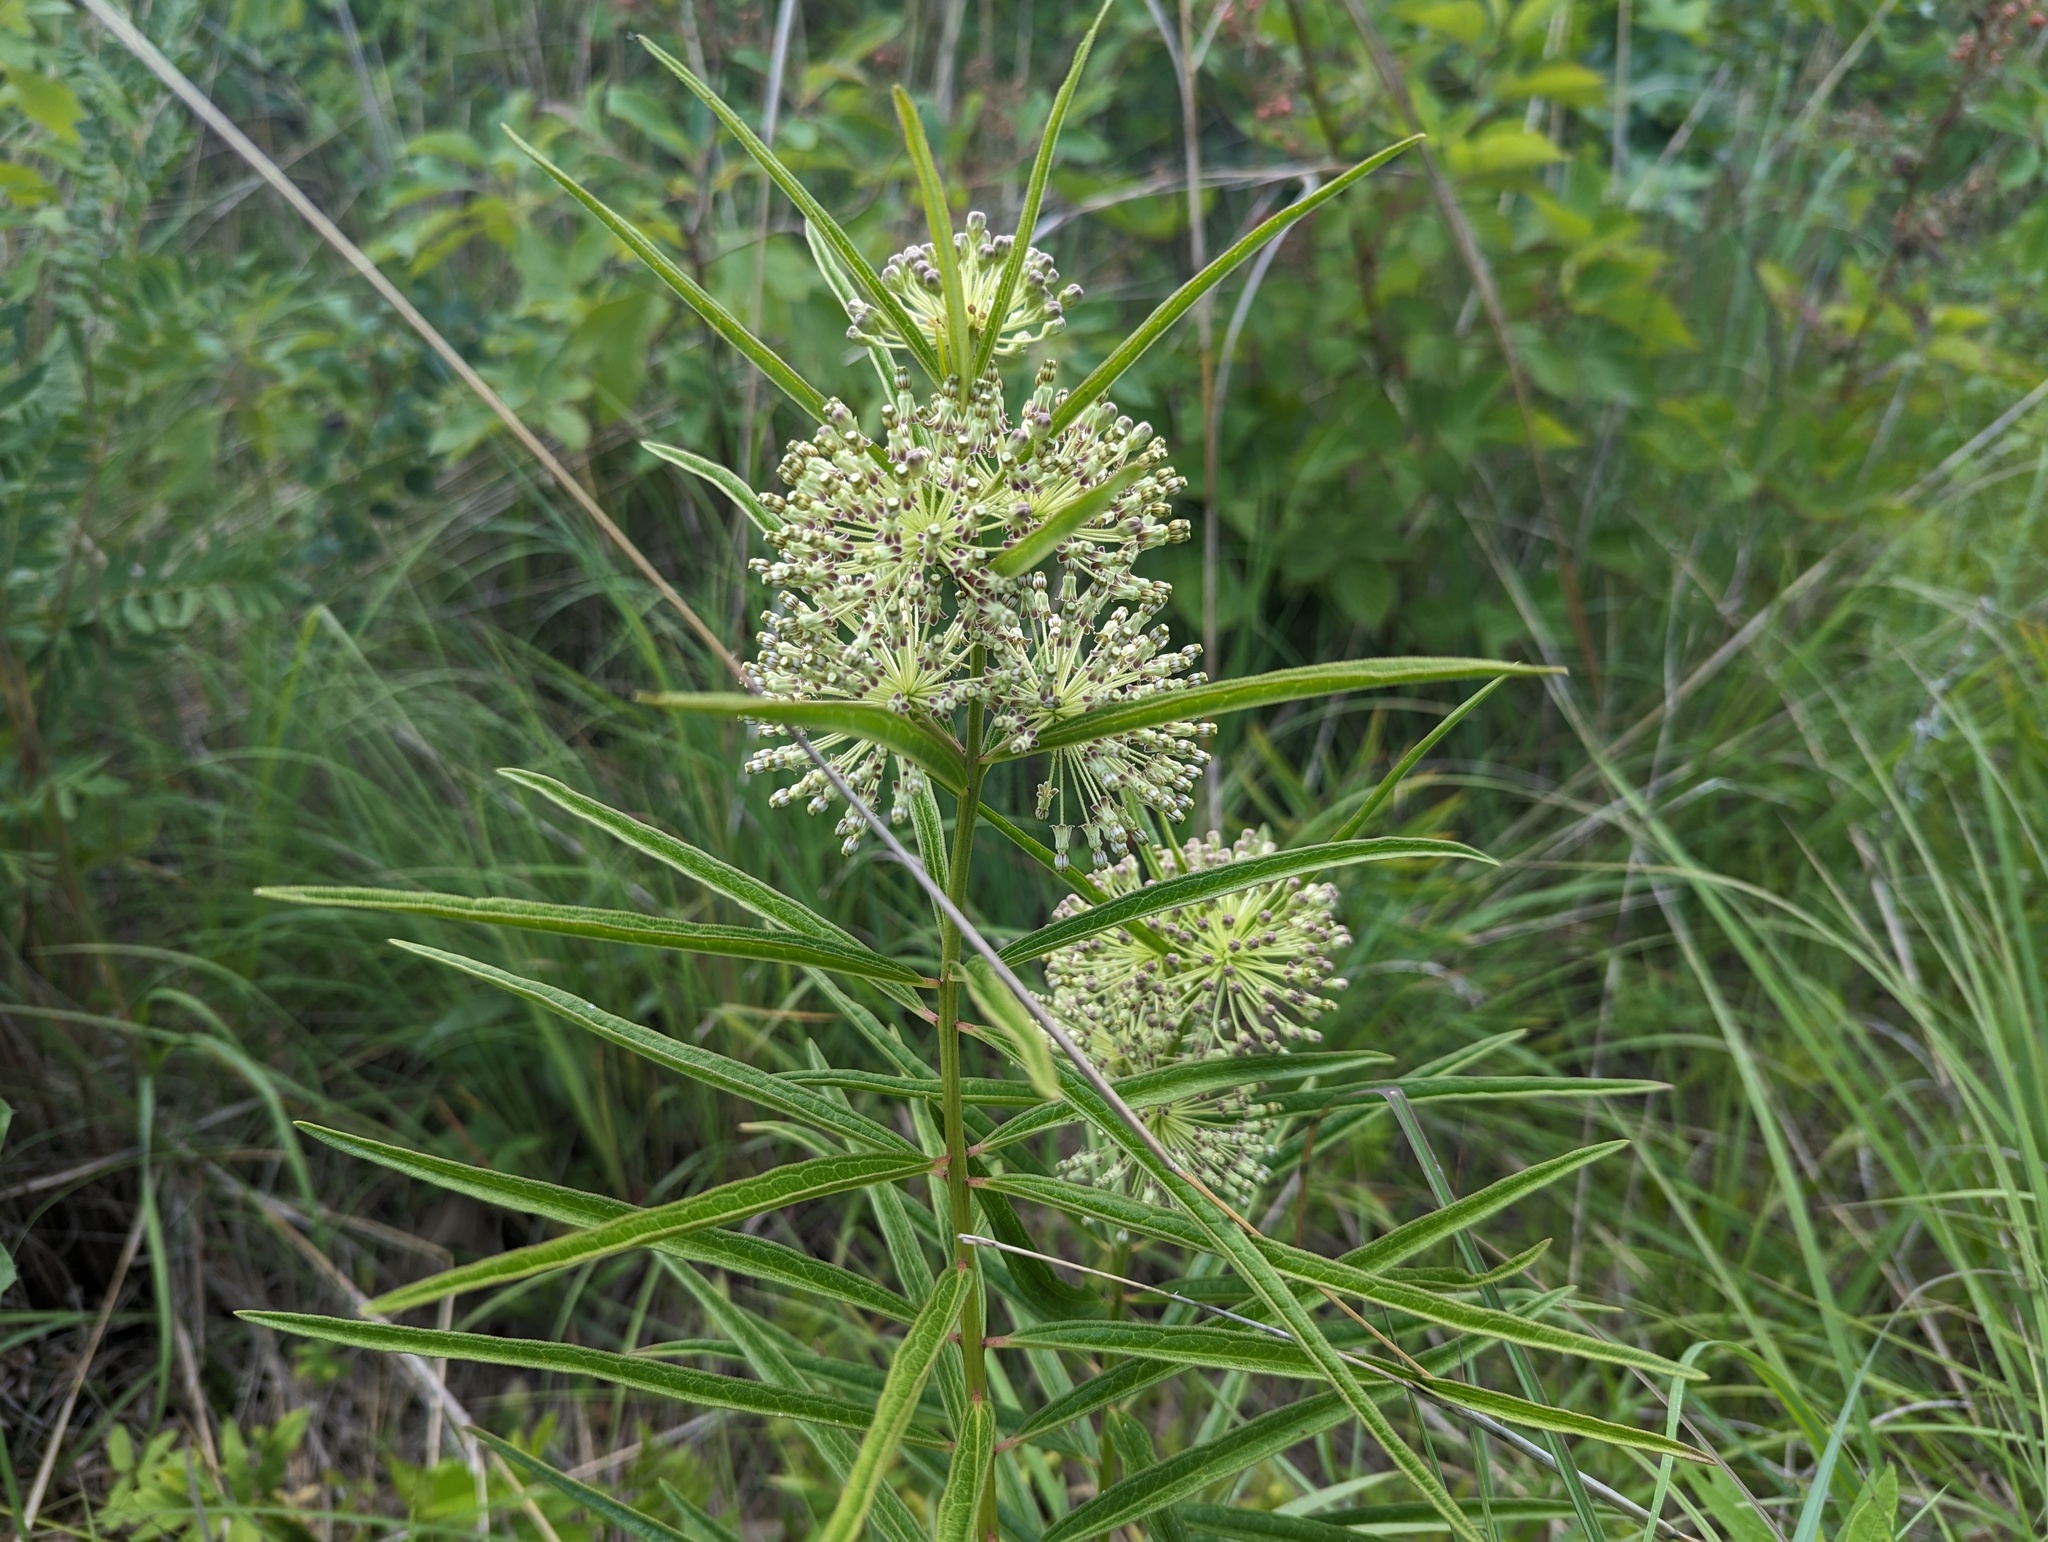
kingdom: Plantae
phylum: Tracheophyta
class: Magnoliopsida
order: Gentianales
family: Apocynaceae
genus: Asclepias
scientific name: Asclepias hirtella
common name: Prairie milkweed
